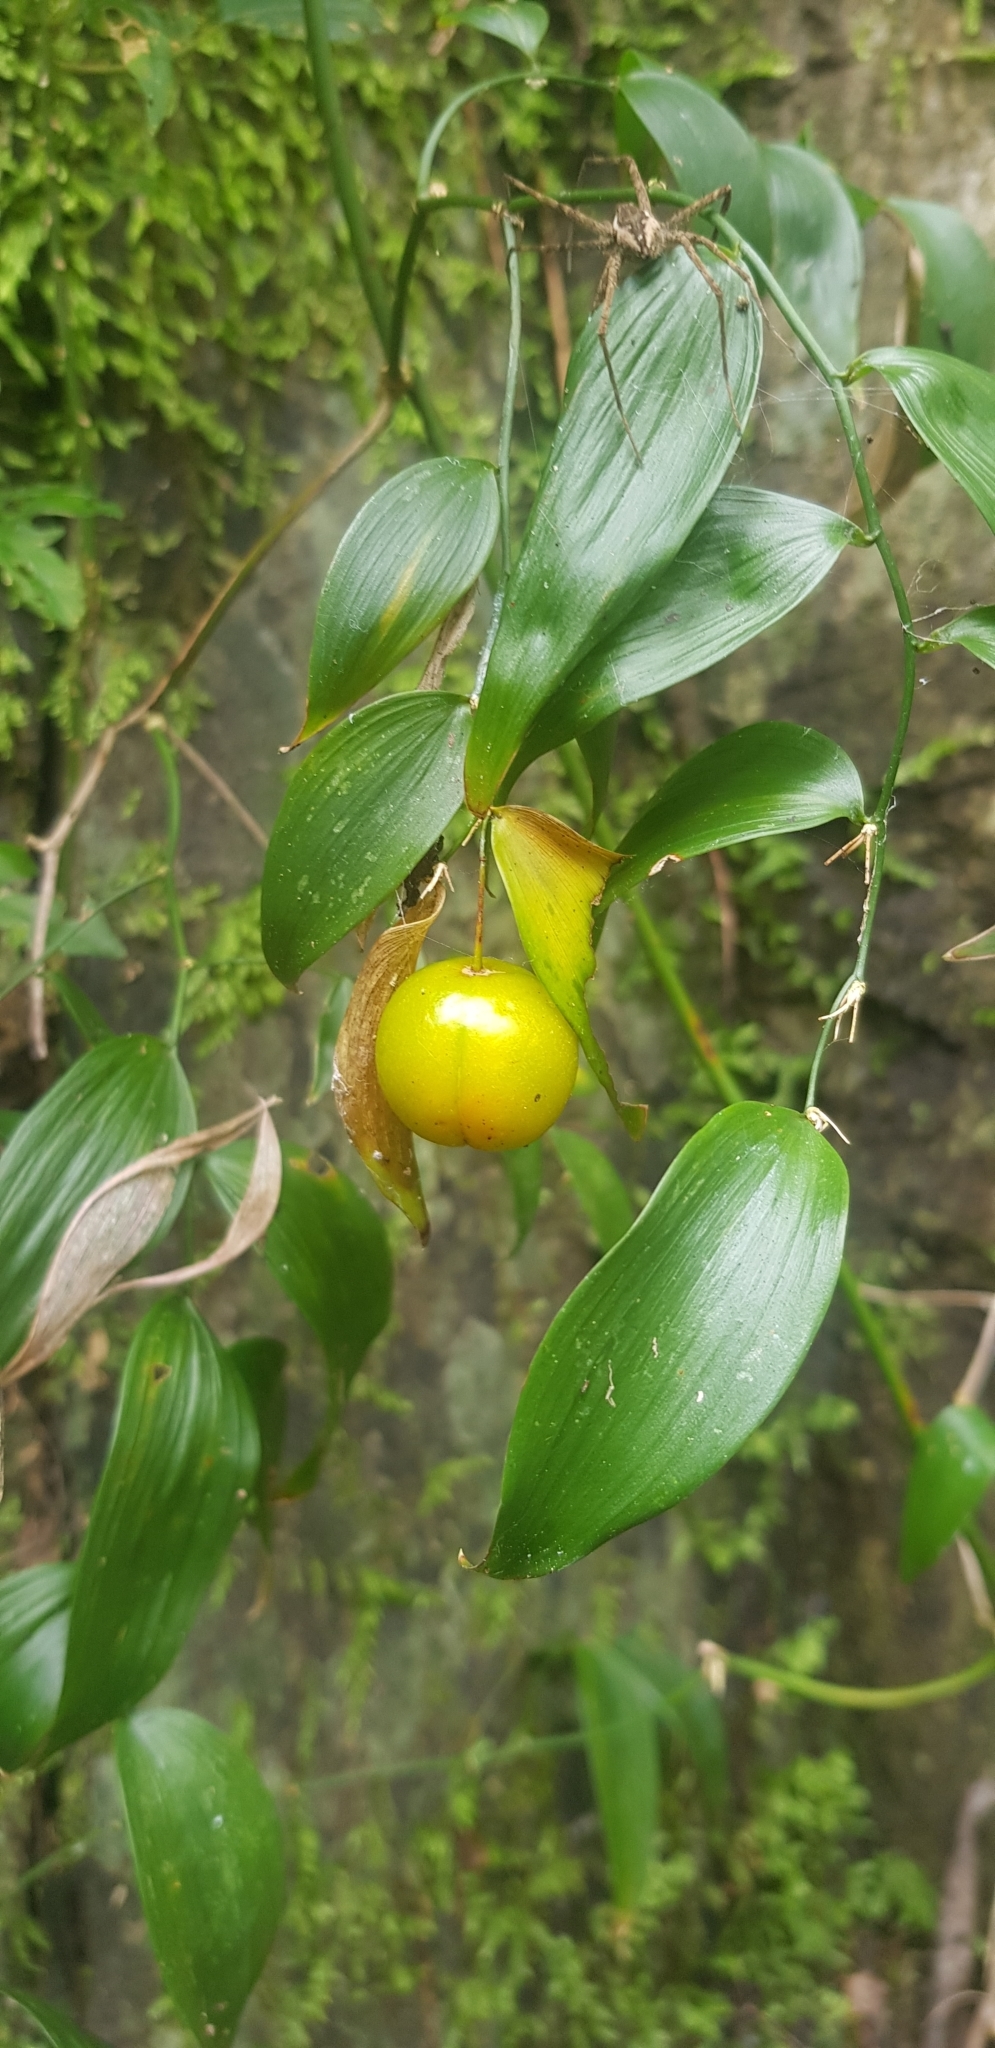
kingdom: Plantae
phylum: Tracheophyta
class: Liliopsida
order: Asparagales
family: Asparagaceae
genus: Eustrephus
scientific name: Eustrephus latifolius
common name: Orangevine
